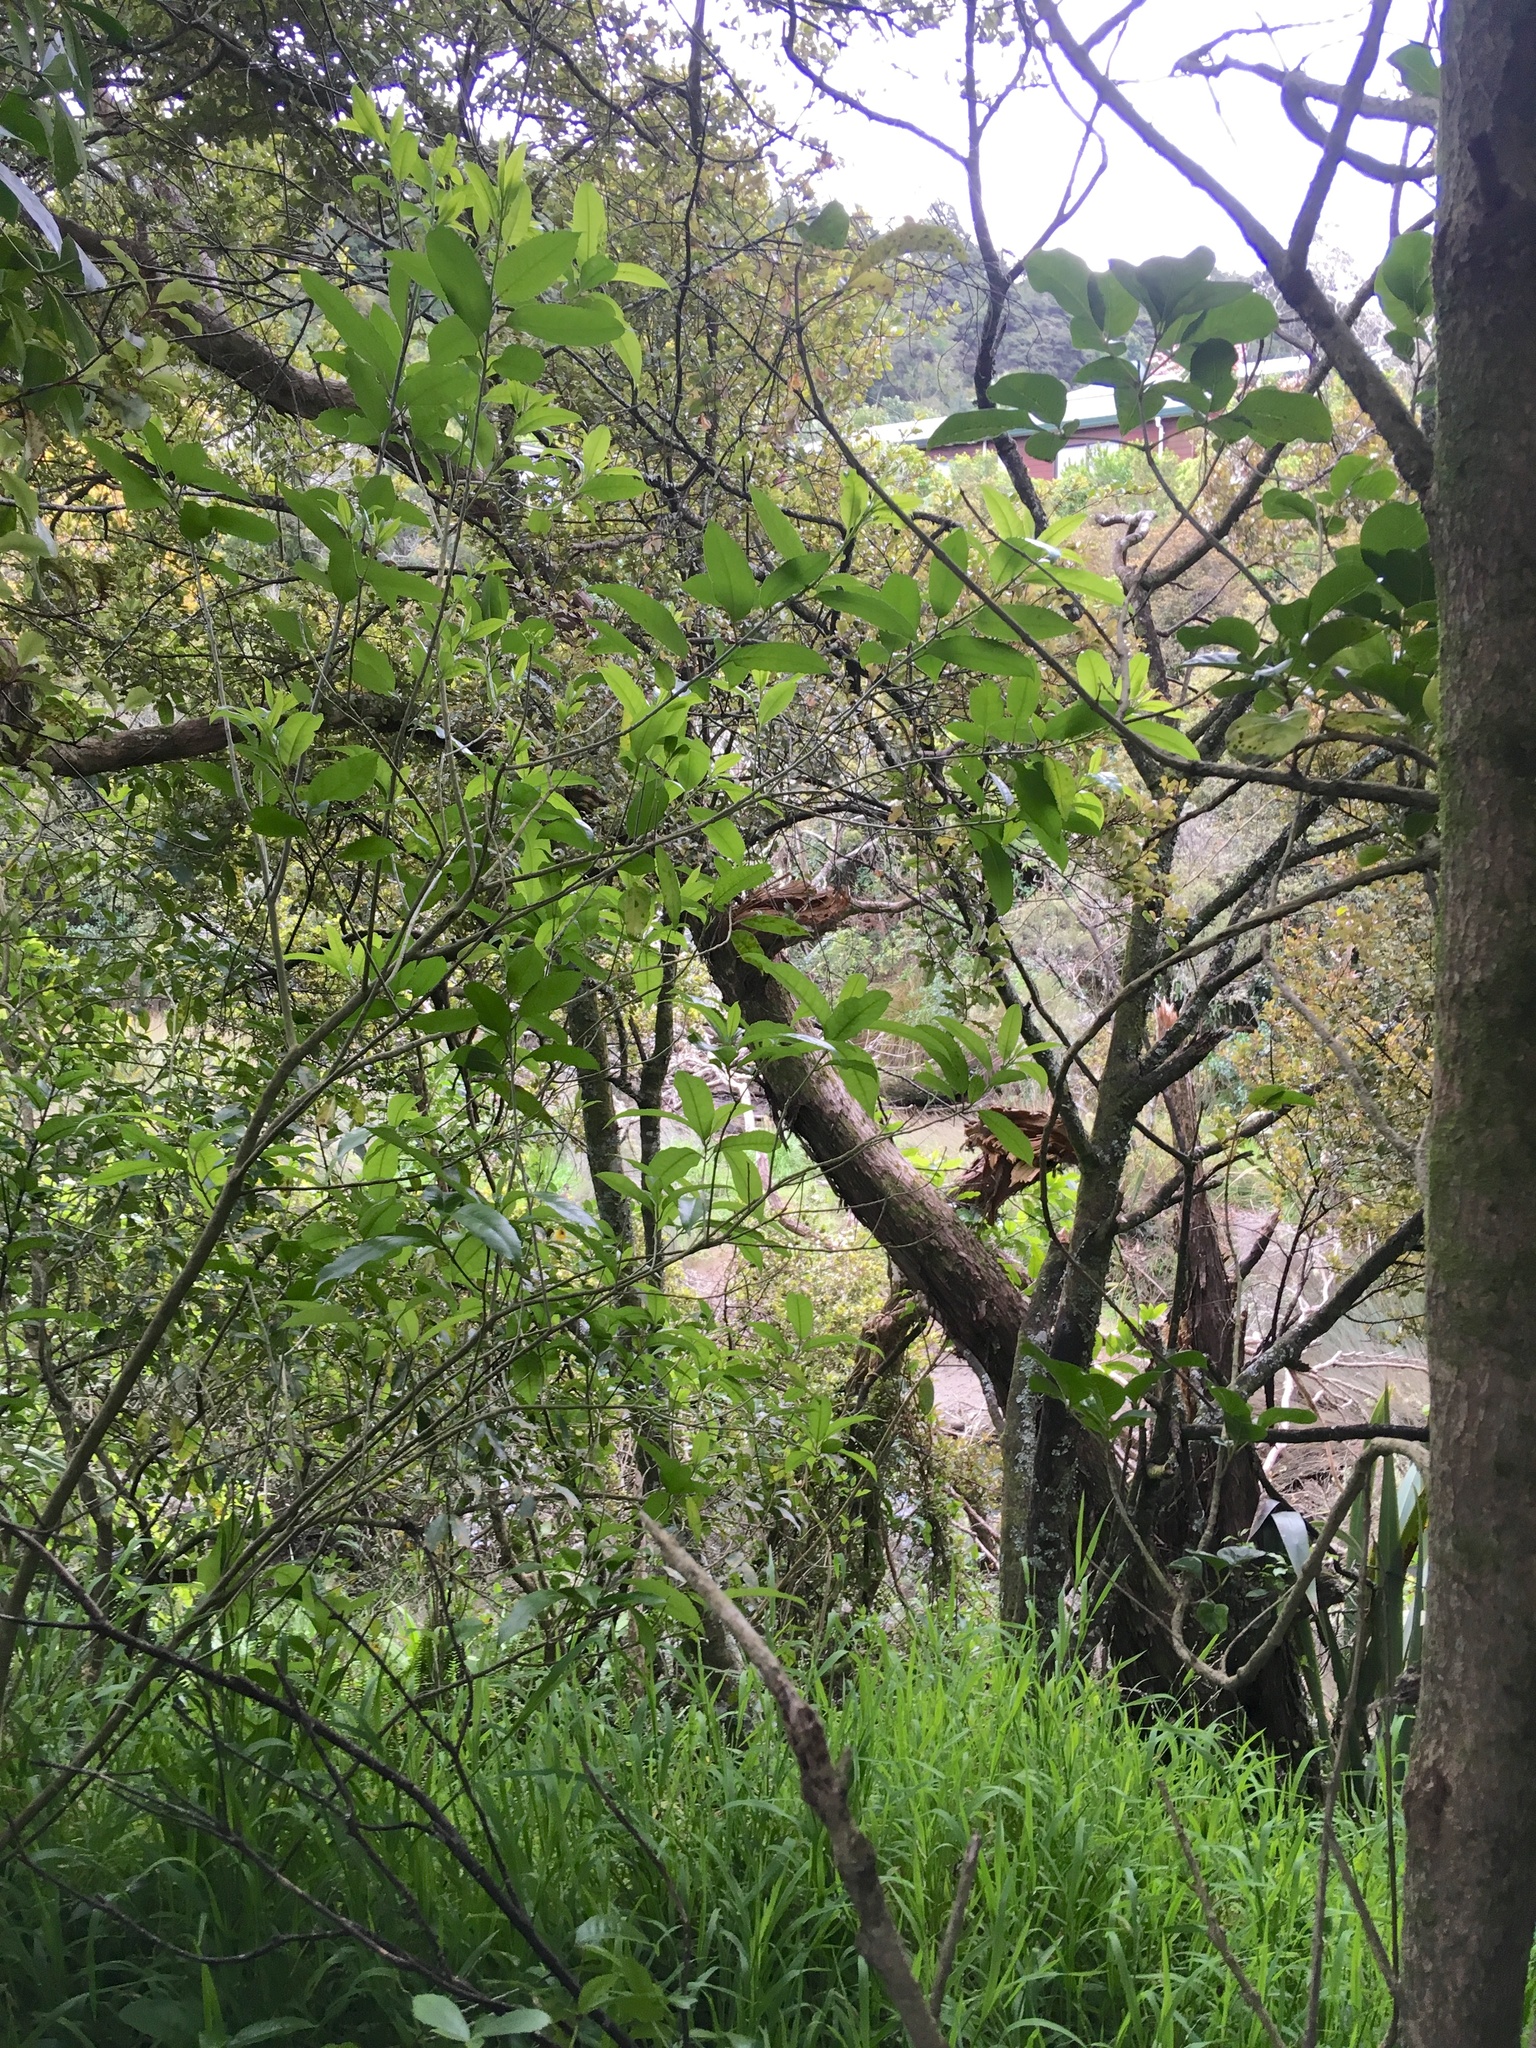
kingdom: Plantae
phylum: Tracheophyta
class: Magnoliopsida
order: Malpighiales
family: Violaceae
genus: Melicytus
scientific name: Melicytus ramiflorus
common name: Mahoe
